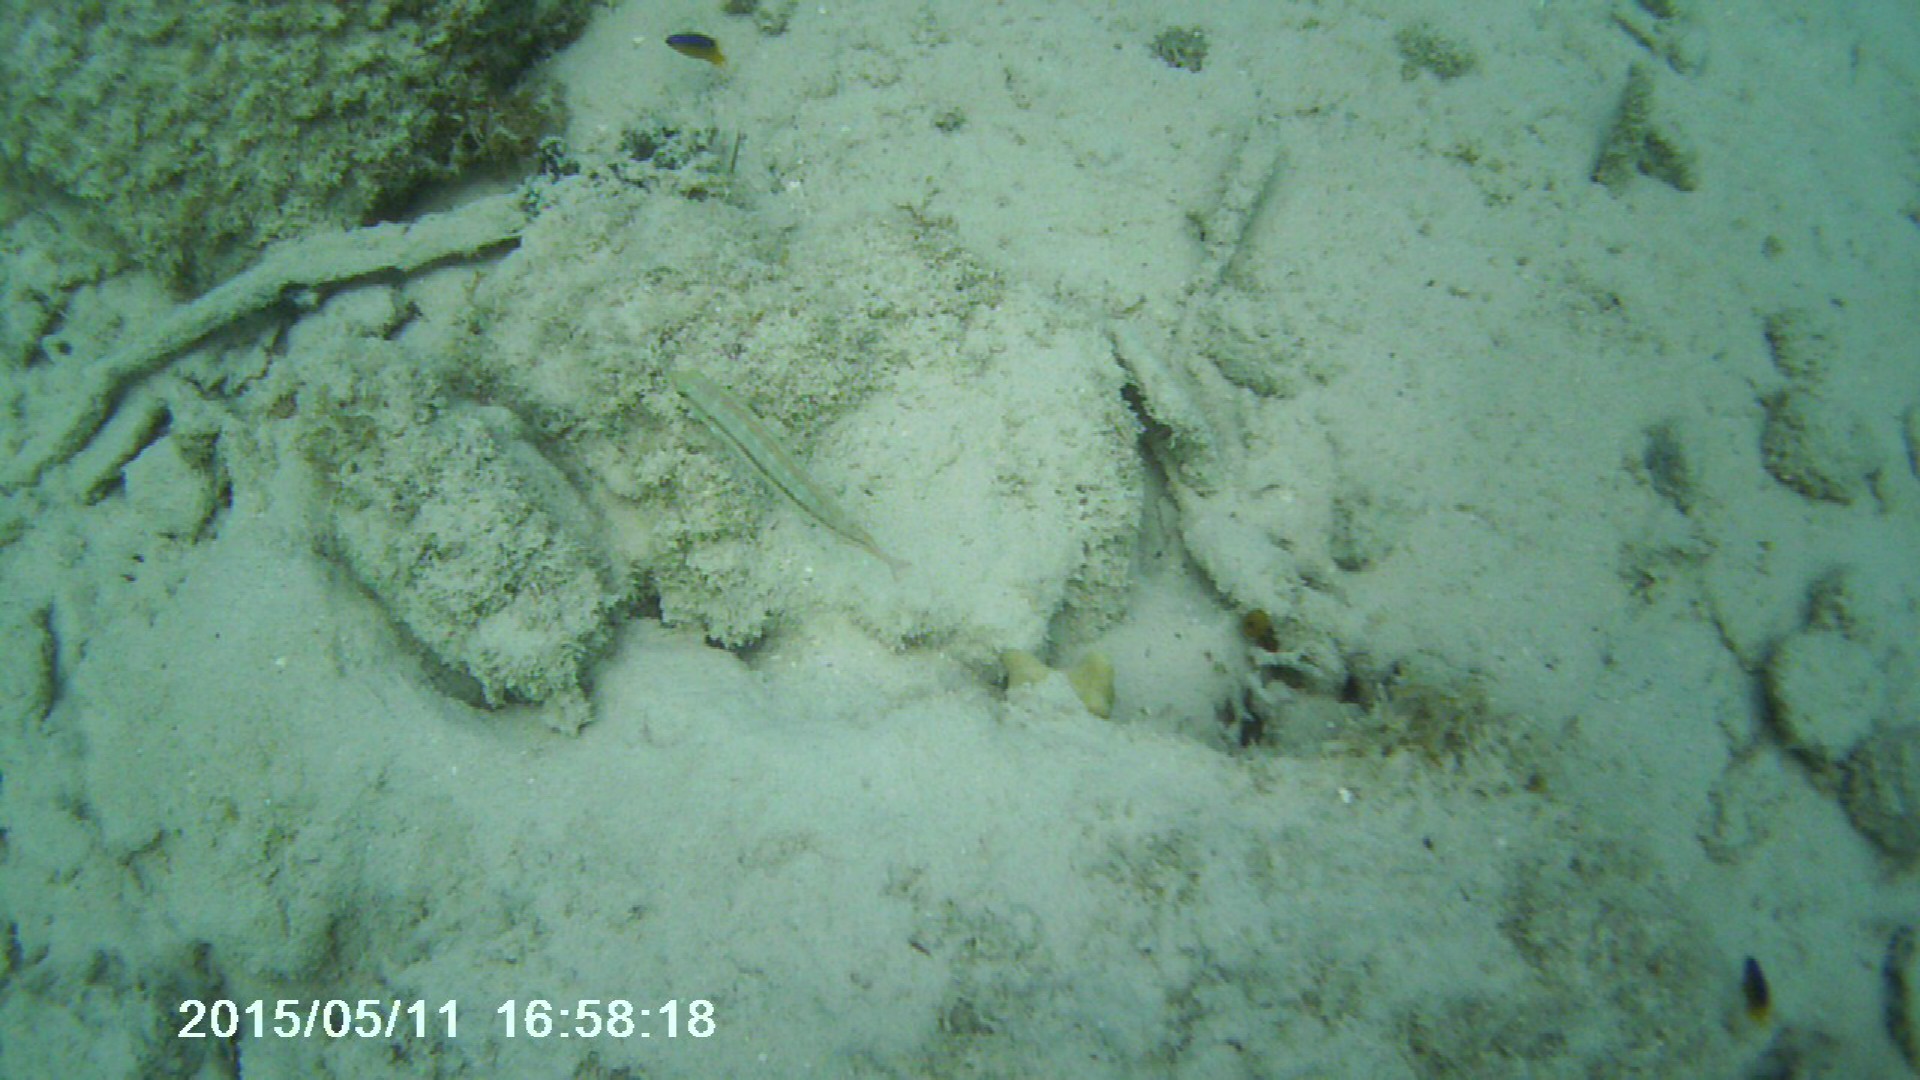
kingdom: Animalia
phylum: Chordata
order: Perciformes
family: Labridae
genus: Halichoeres
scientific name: Halichoeres bivittatus
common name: Slippery dick
